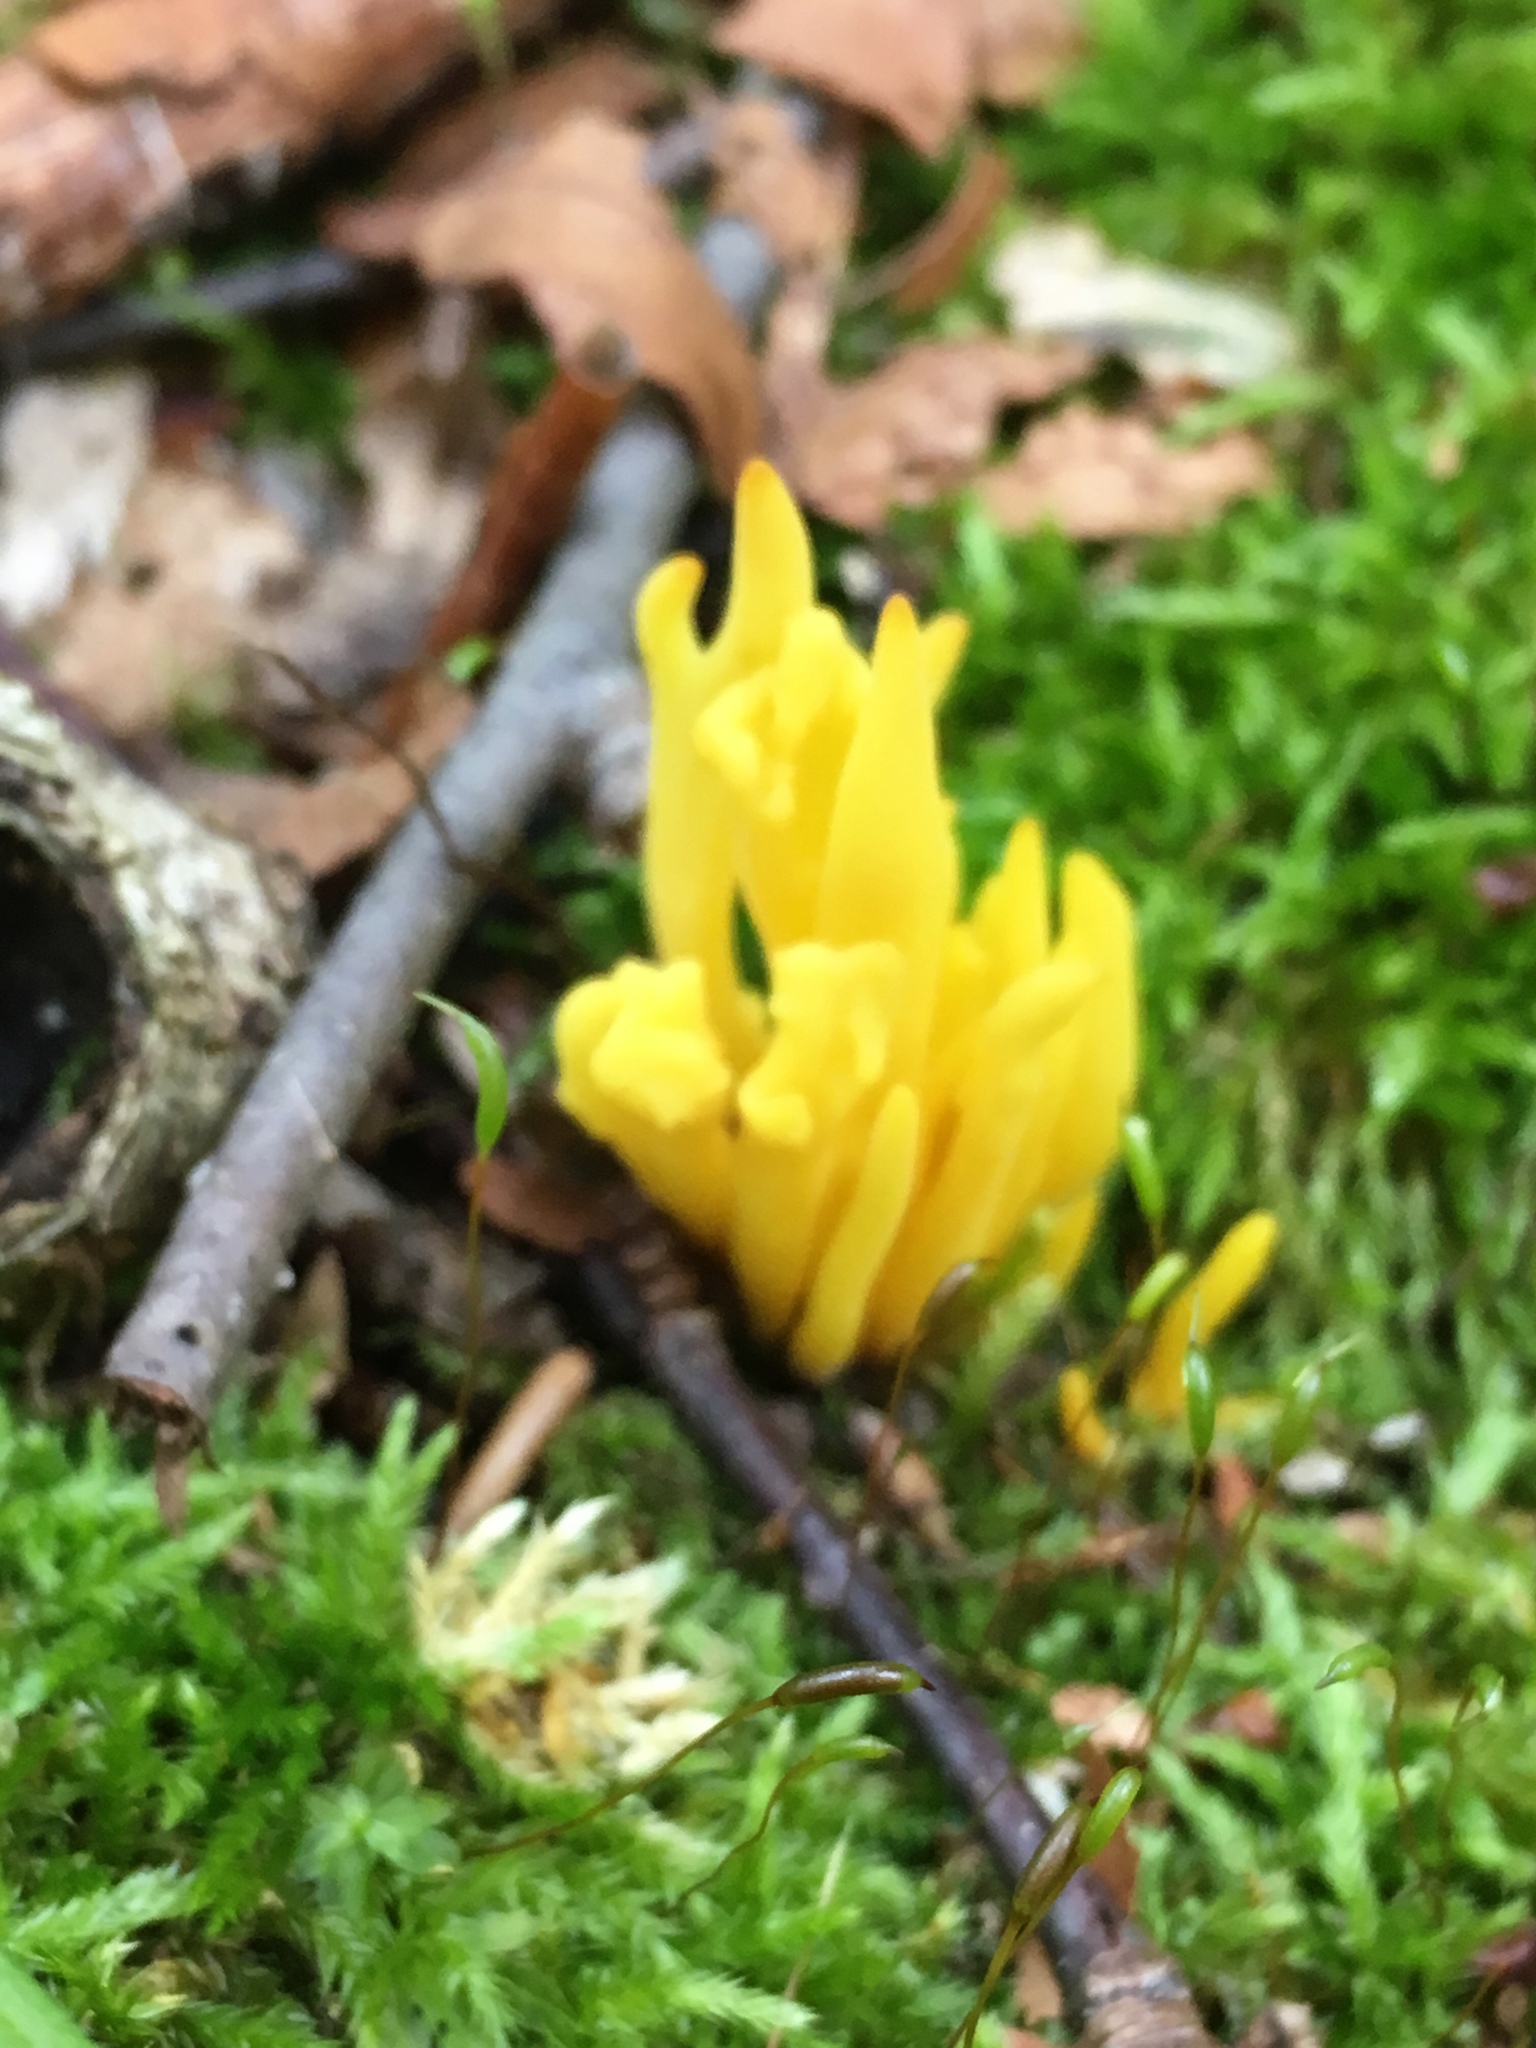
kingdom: Fungi
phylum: Basidiomycota
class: Agaricomycetes
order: Agaricales
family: Clavariaceae
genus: Clavulinopsis
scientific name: Clavulinopsis fusiformis
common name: Golden spindles
